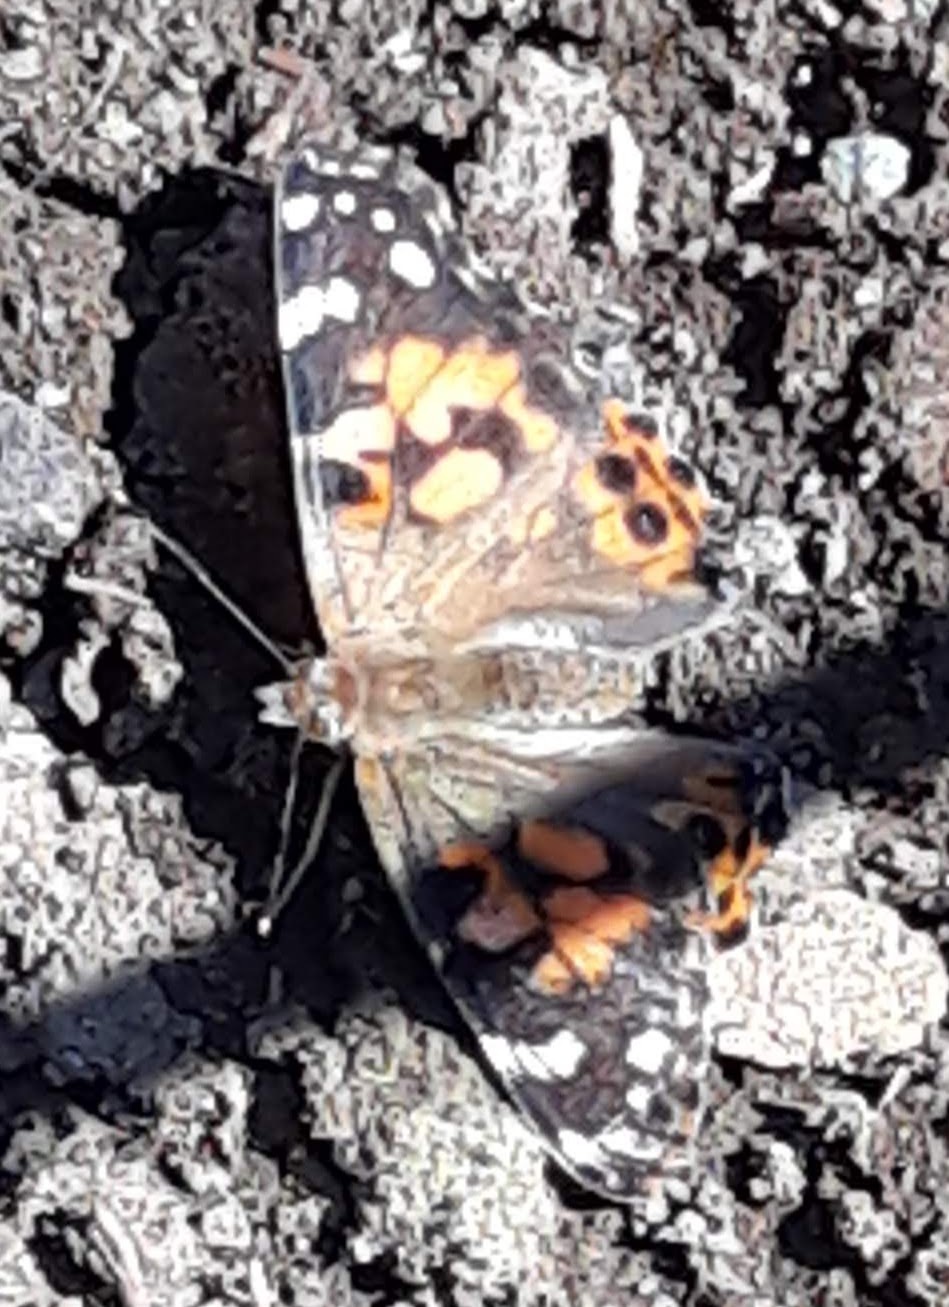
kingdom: Animalia
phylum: Arthropoda
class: Insecta
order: Lepidoptera
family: Nymphalidae
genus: Vanessa
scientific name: Vanessa cardui
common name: Painted lady
